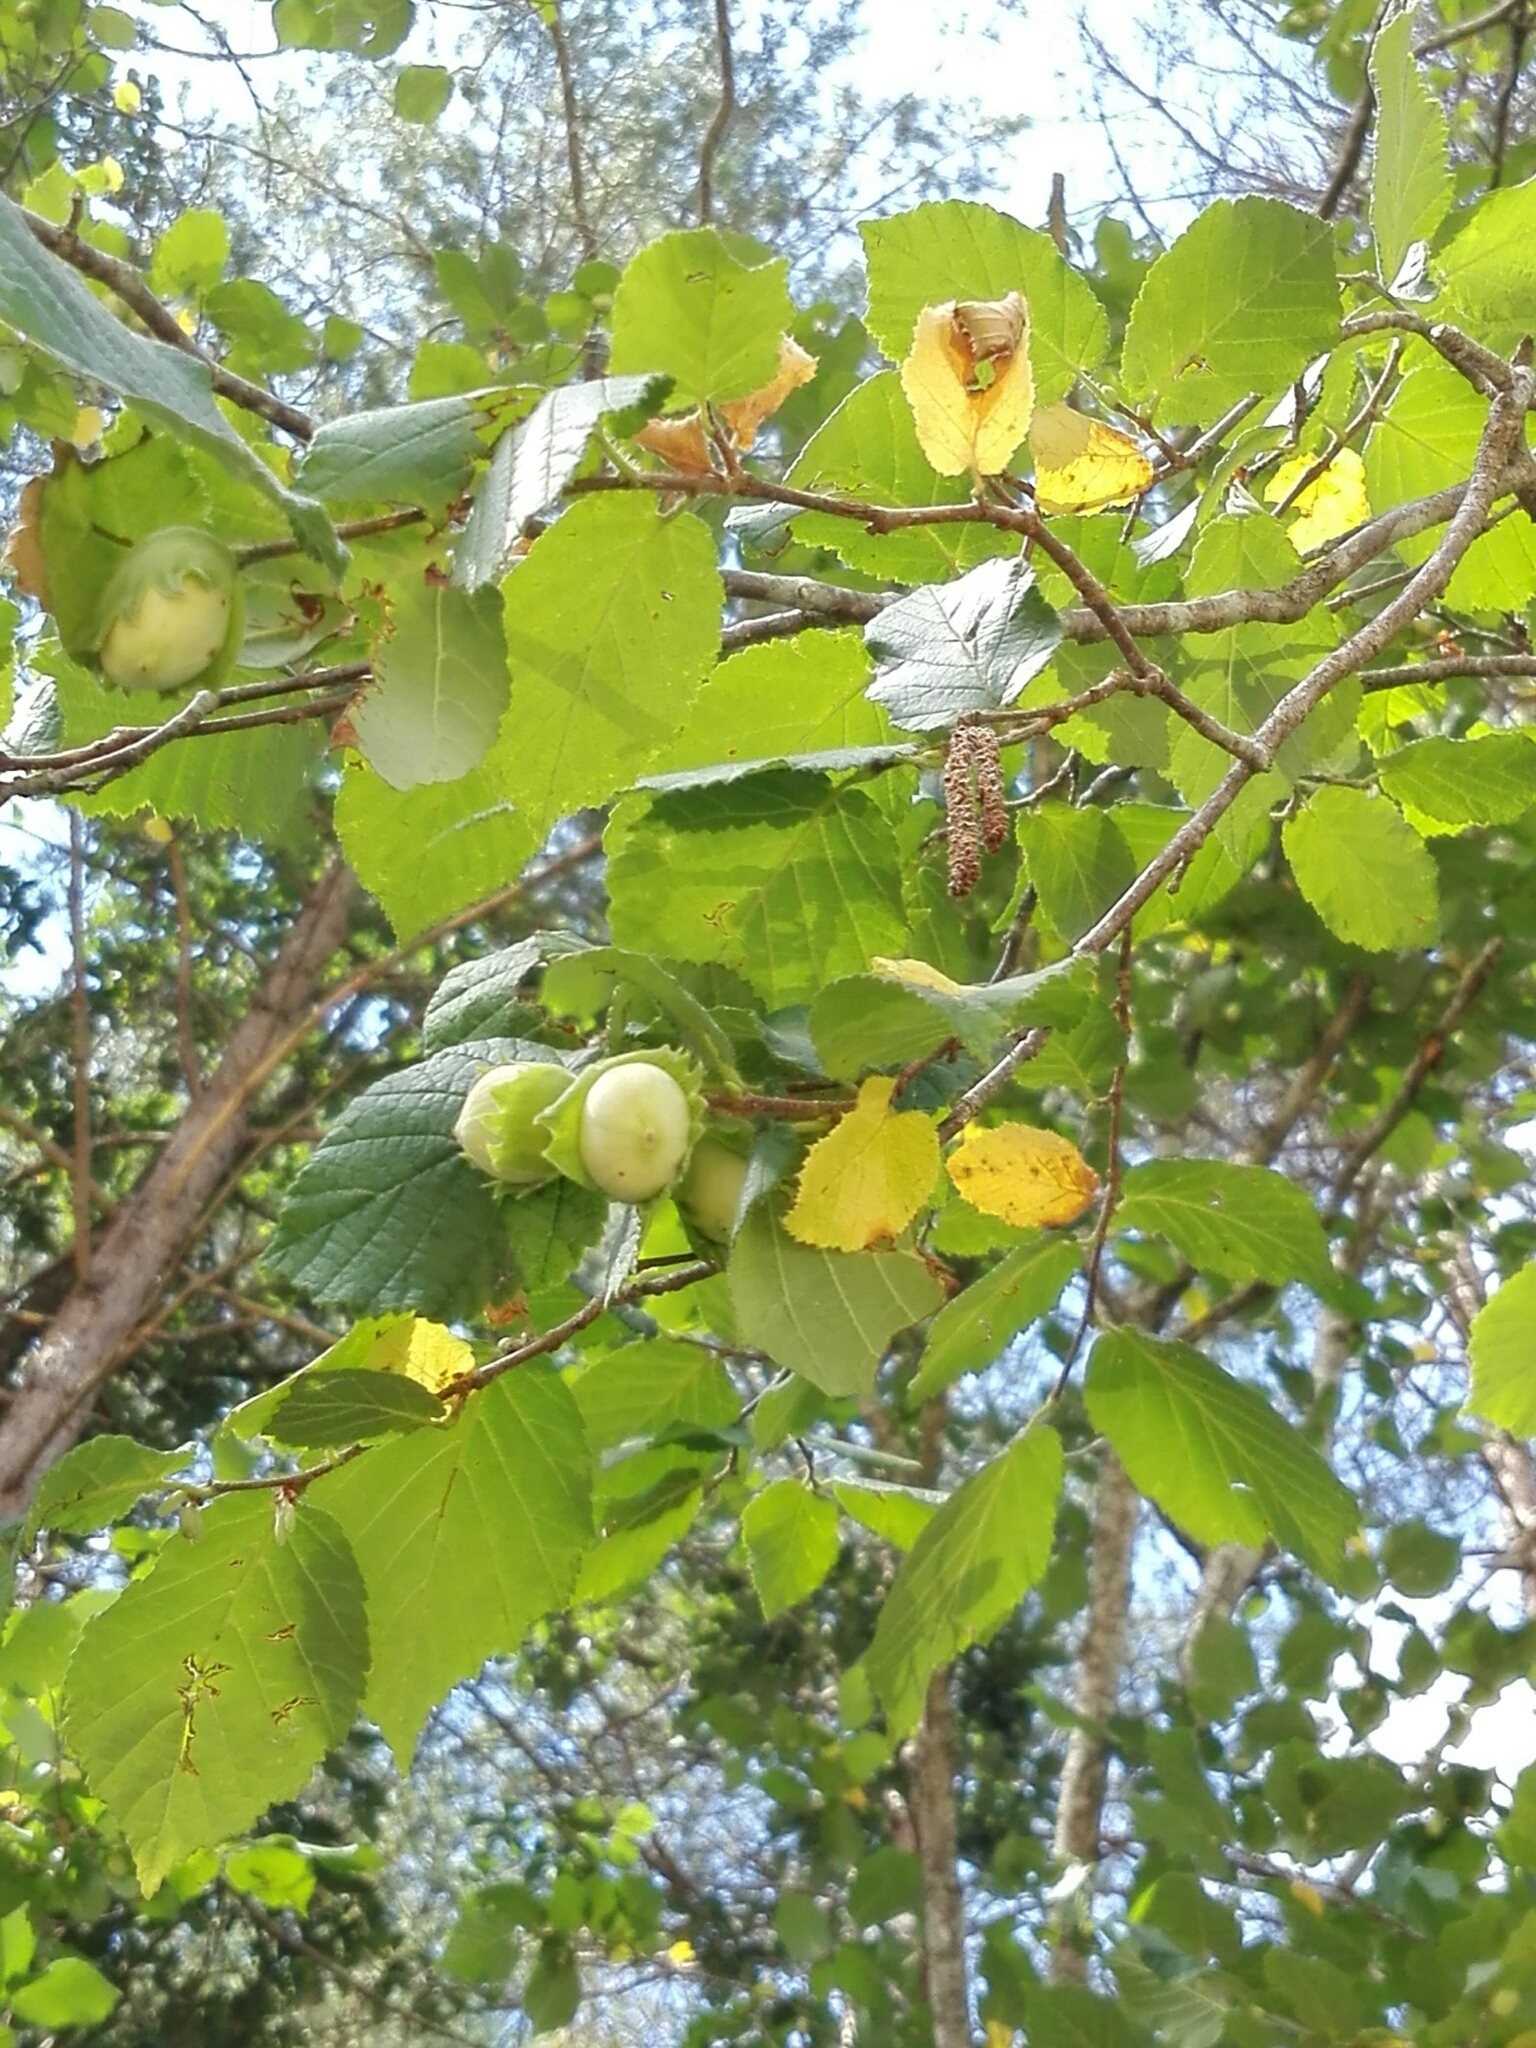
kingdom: Plantae
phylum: Tracheophyta
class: Magnoliopsida
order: Fagales
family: Betulaceae
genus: Corylus
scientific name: Corylus avellana
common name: European hazel
